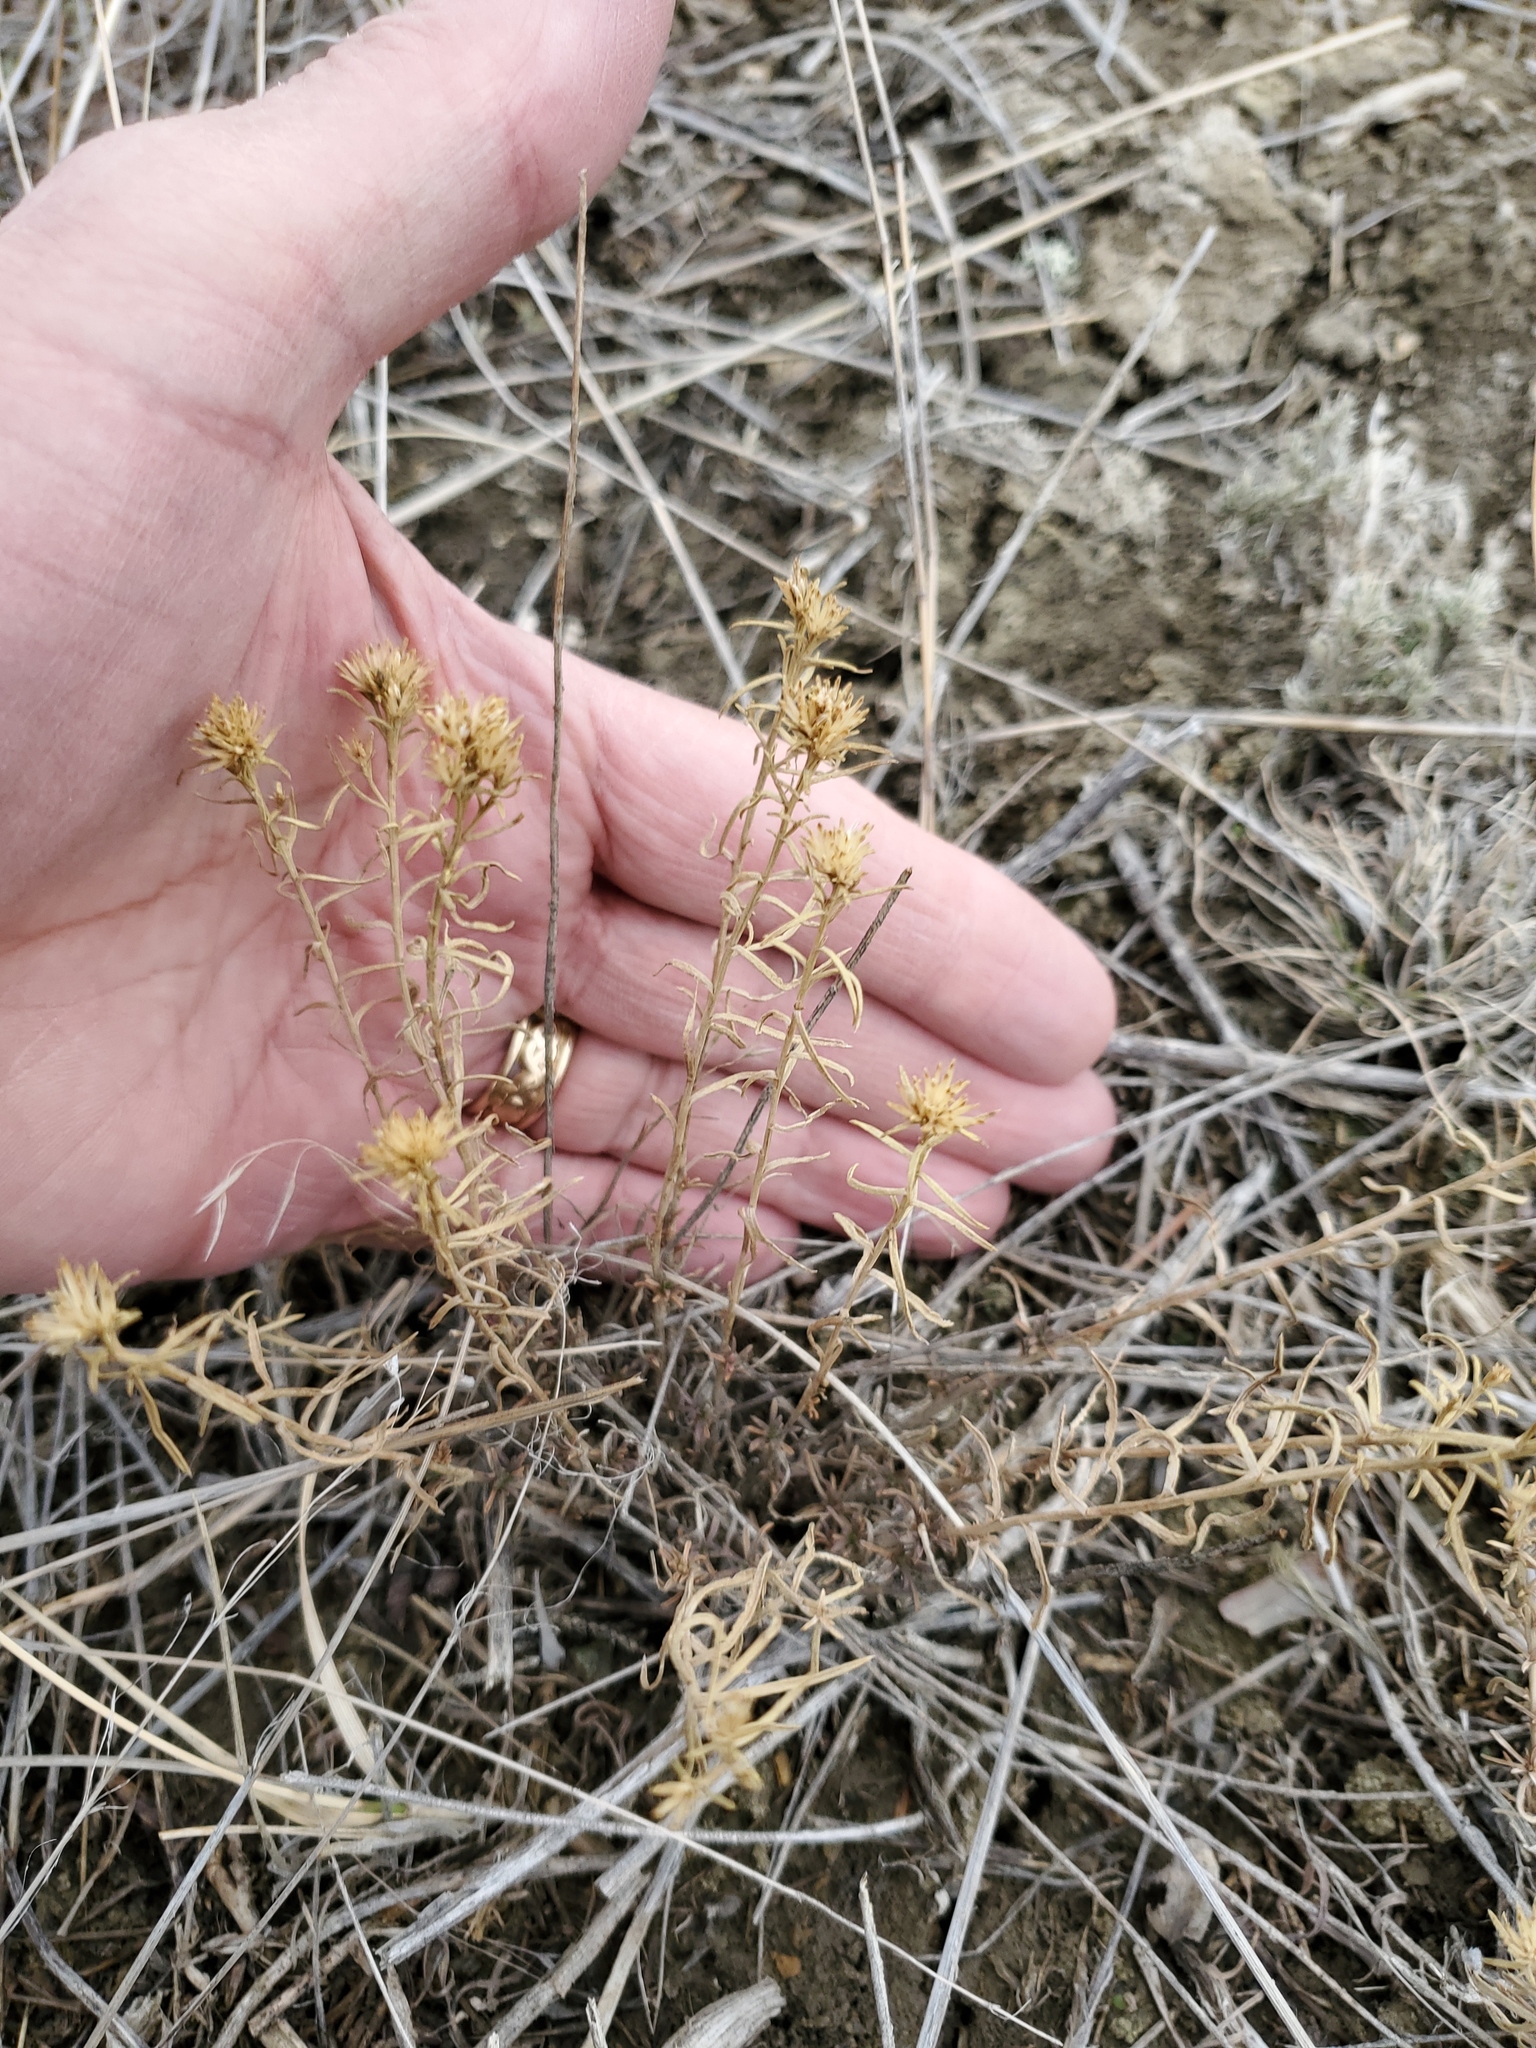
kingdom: Plantae
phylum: Tracheophyta
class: Magnoliopsida
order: Asterales
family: Asteraceae
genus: Gutierrezia
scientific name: Gutierrezia sarothrae
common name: Broom snakeweed
